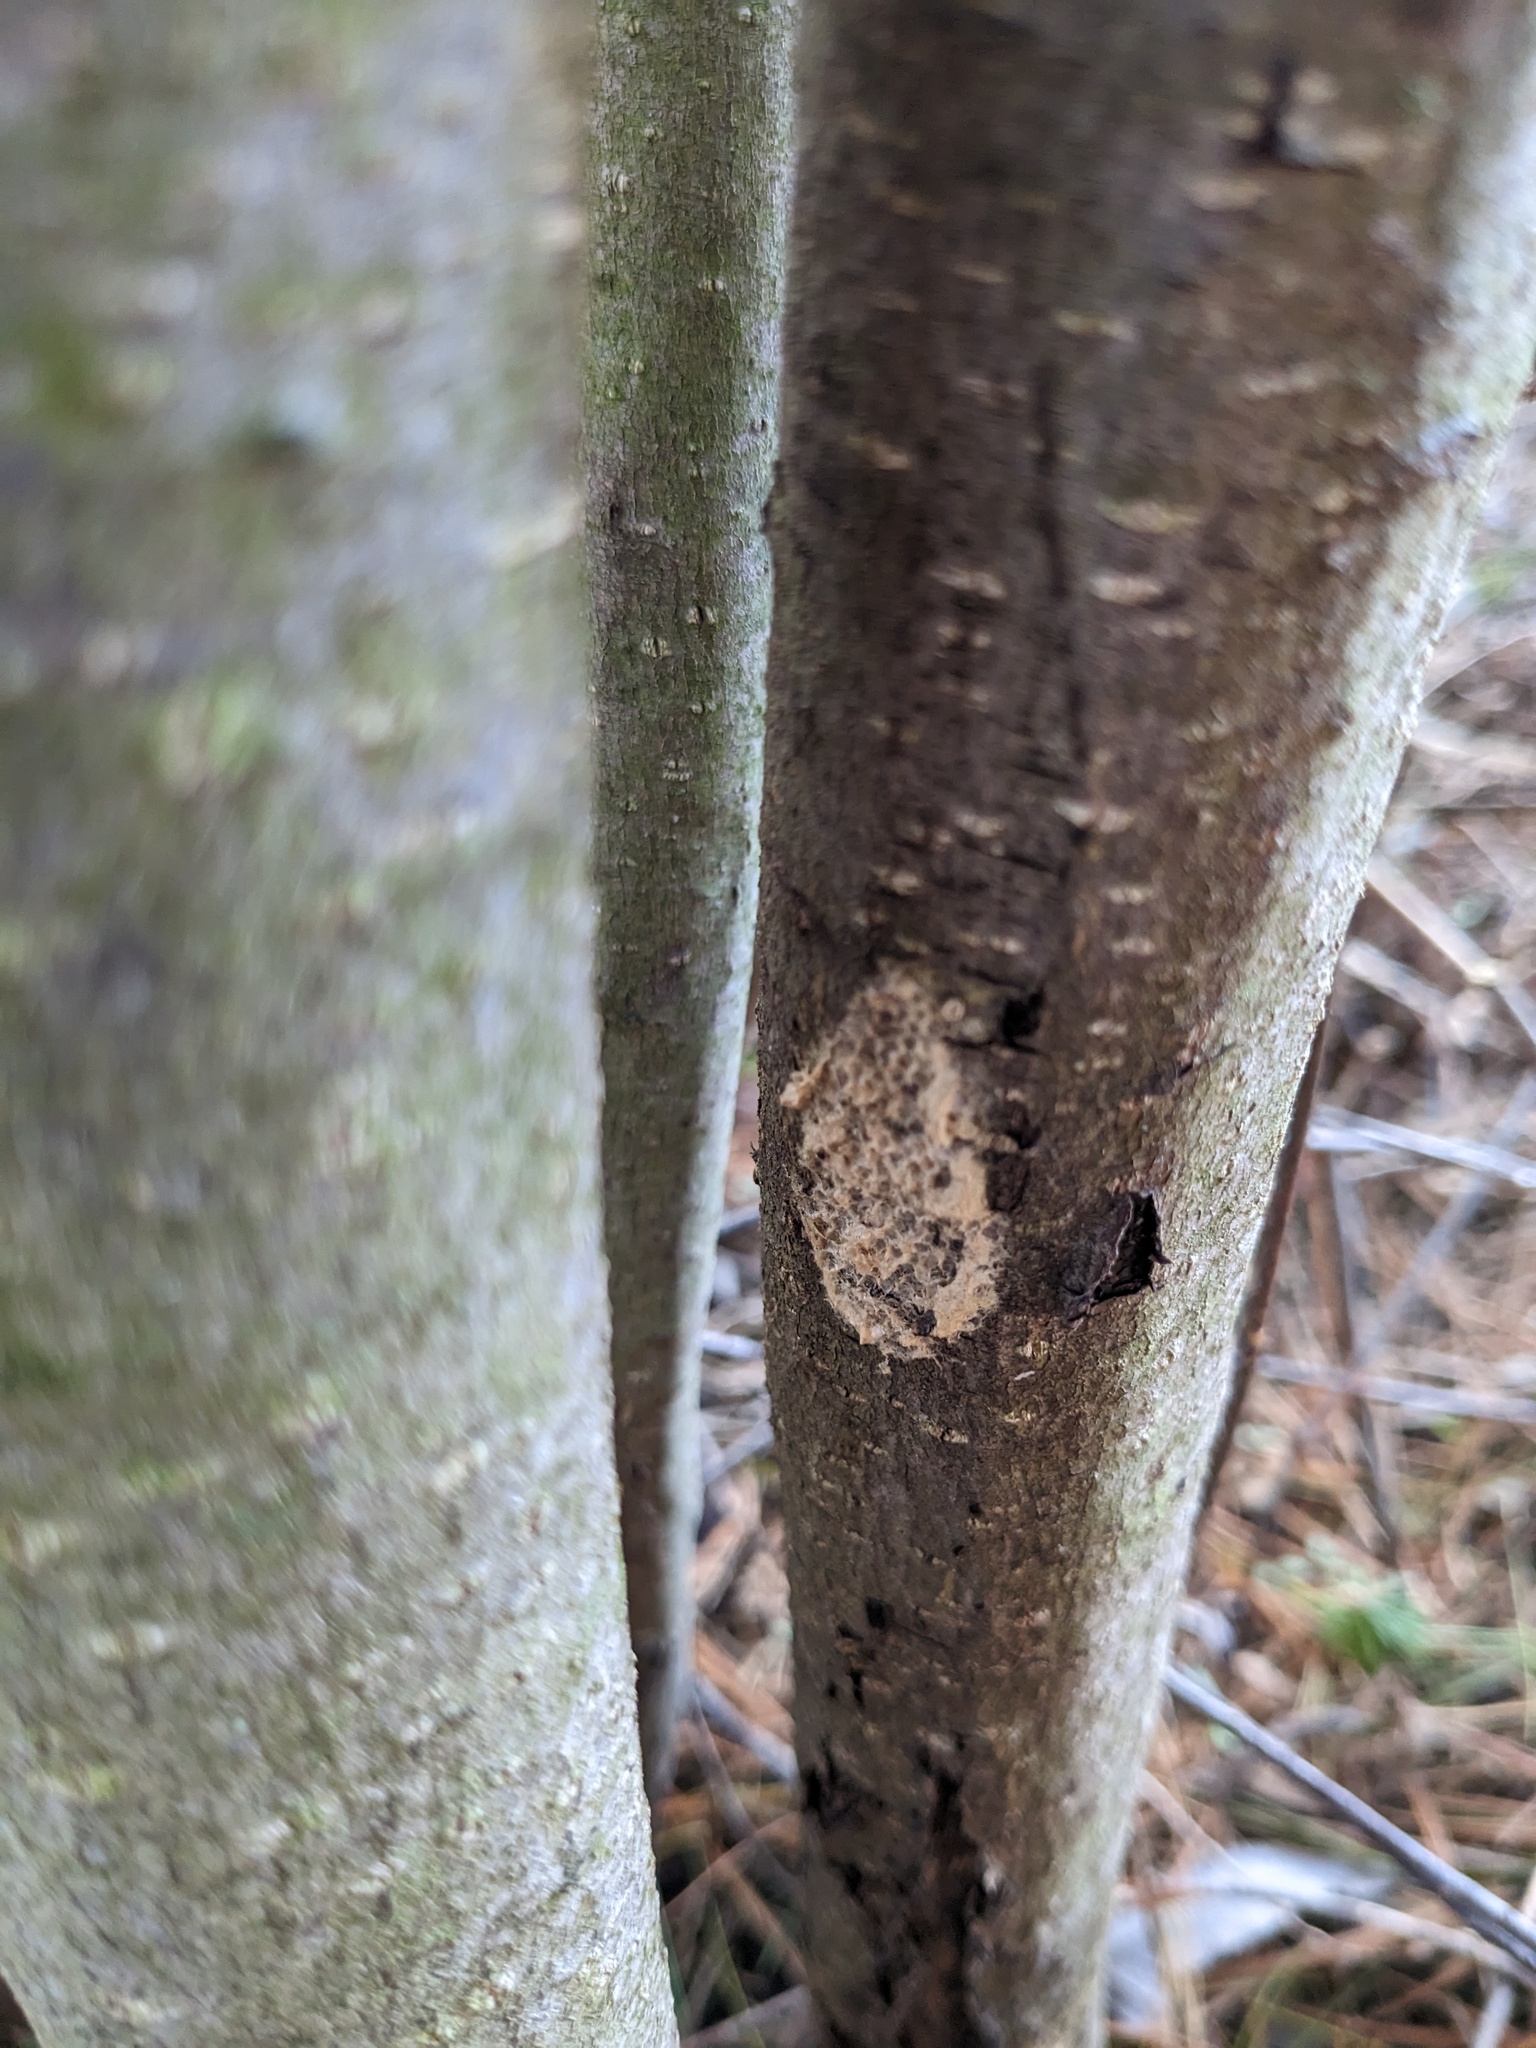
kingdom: Animalia
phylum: Arthropoda
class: Insecta
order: Lepidoptera
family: Erebidae
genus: Lymantria
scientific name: Lymantria dispar
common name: Gypsy moth
